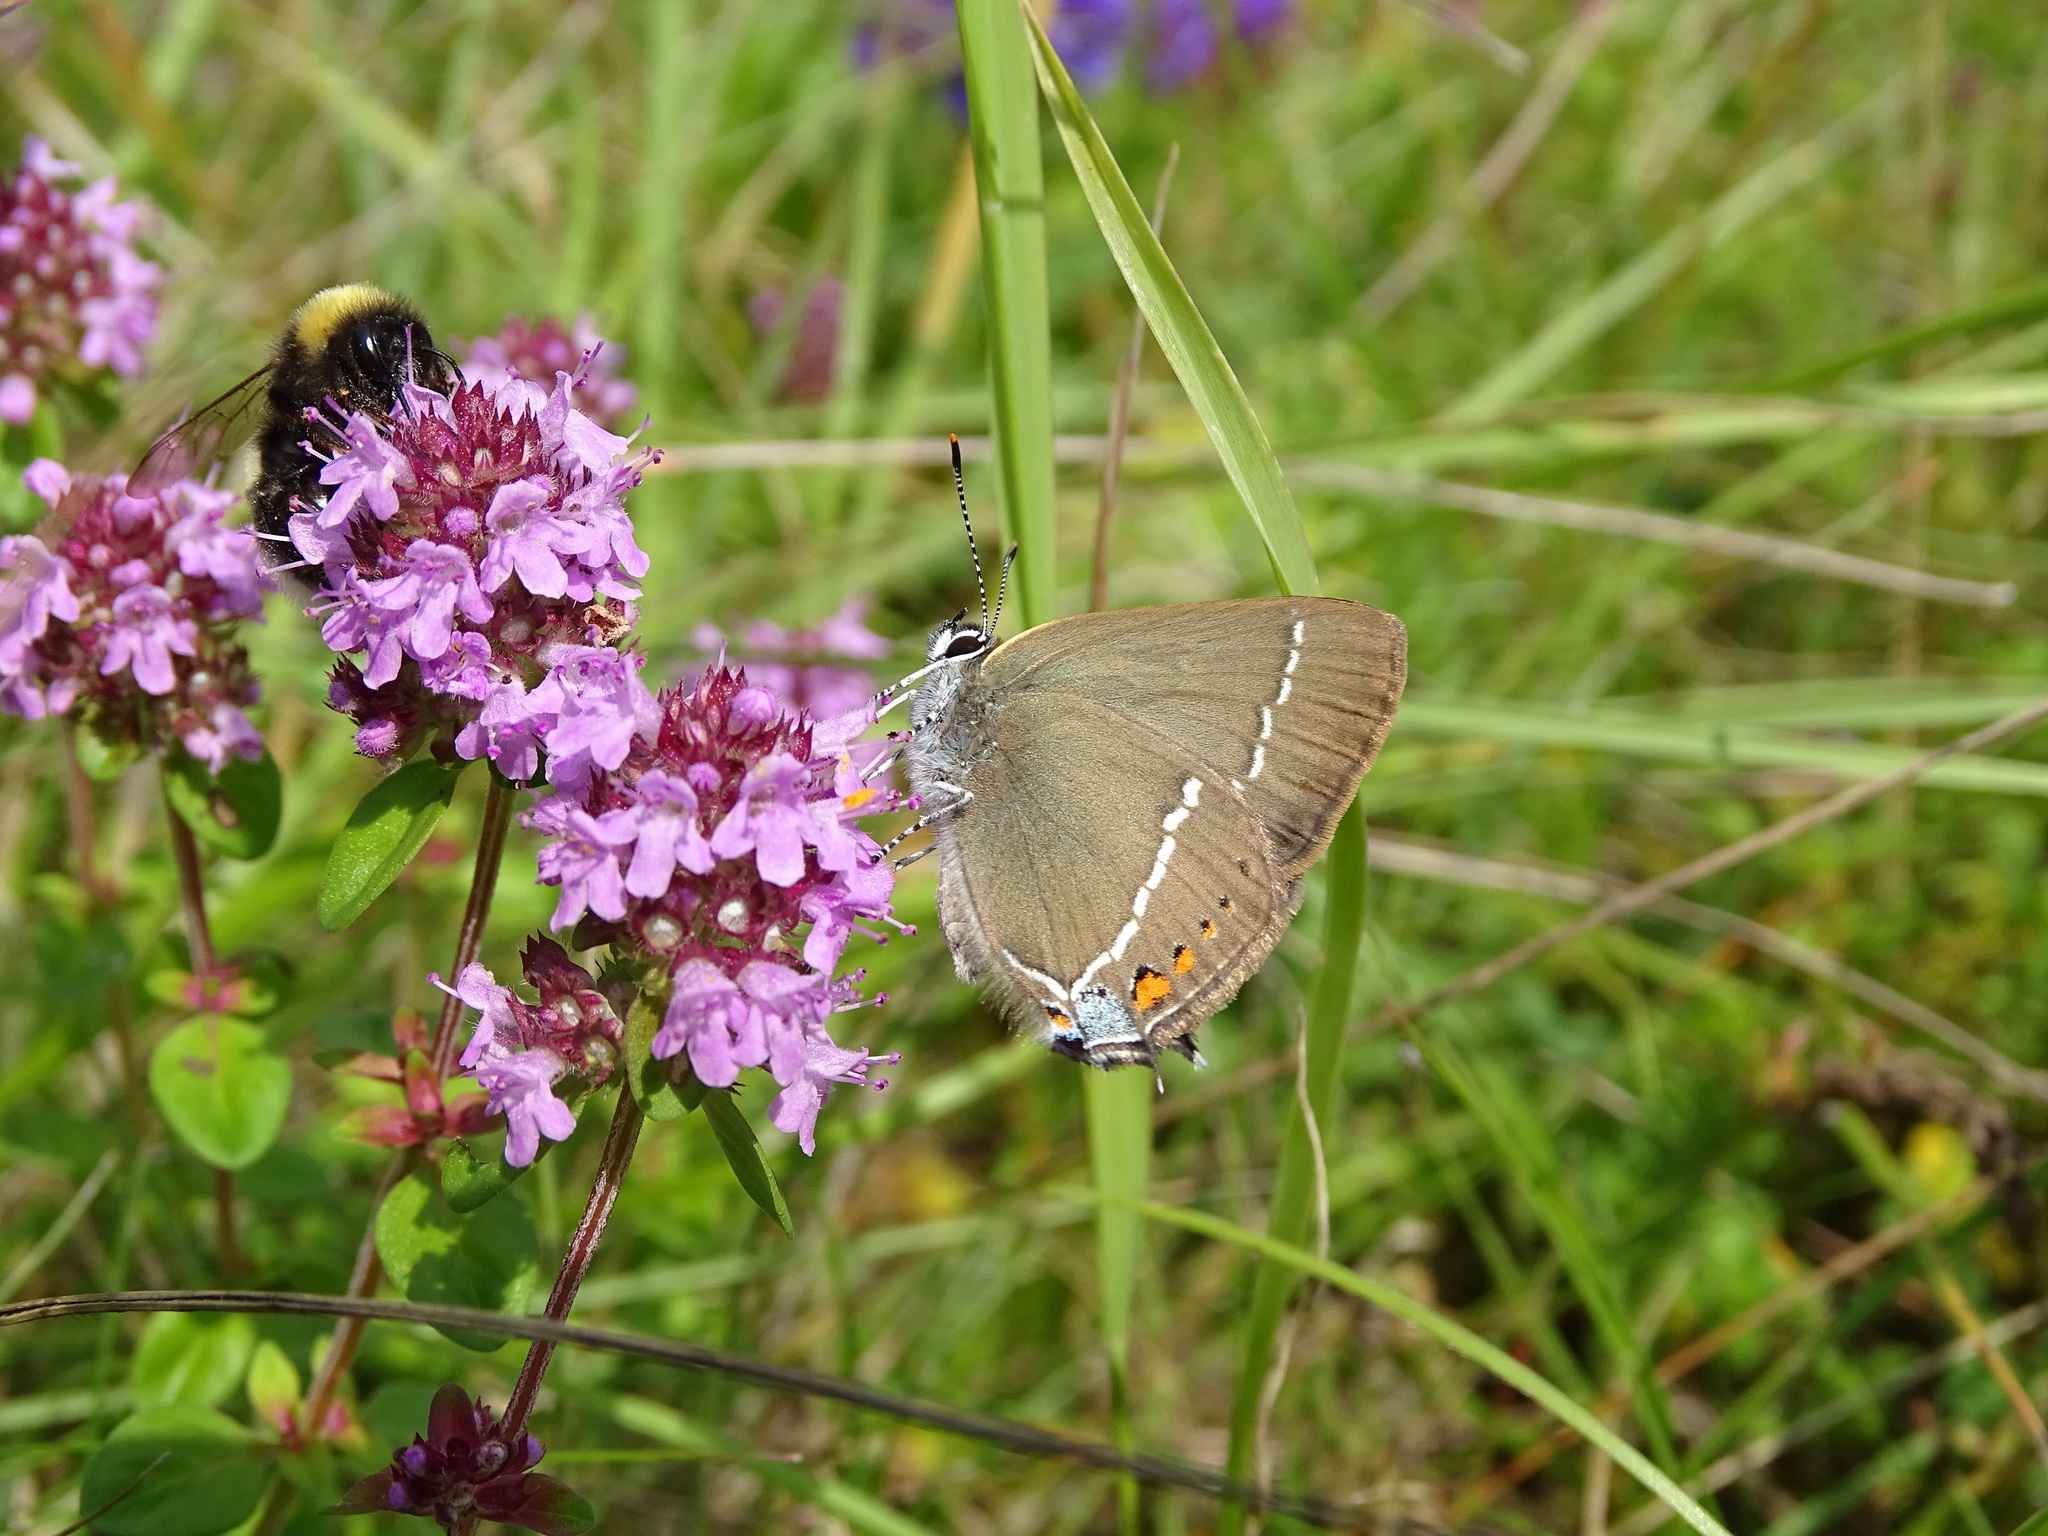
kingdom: Animalia
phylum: Arthropoda
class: Insecta
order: Lepidoptera
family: Lycaenidae
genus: Tuttiola
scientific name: Tuttiola spini
